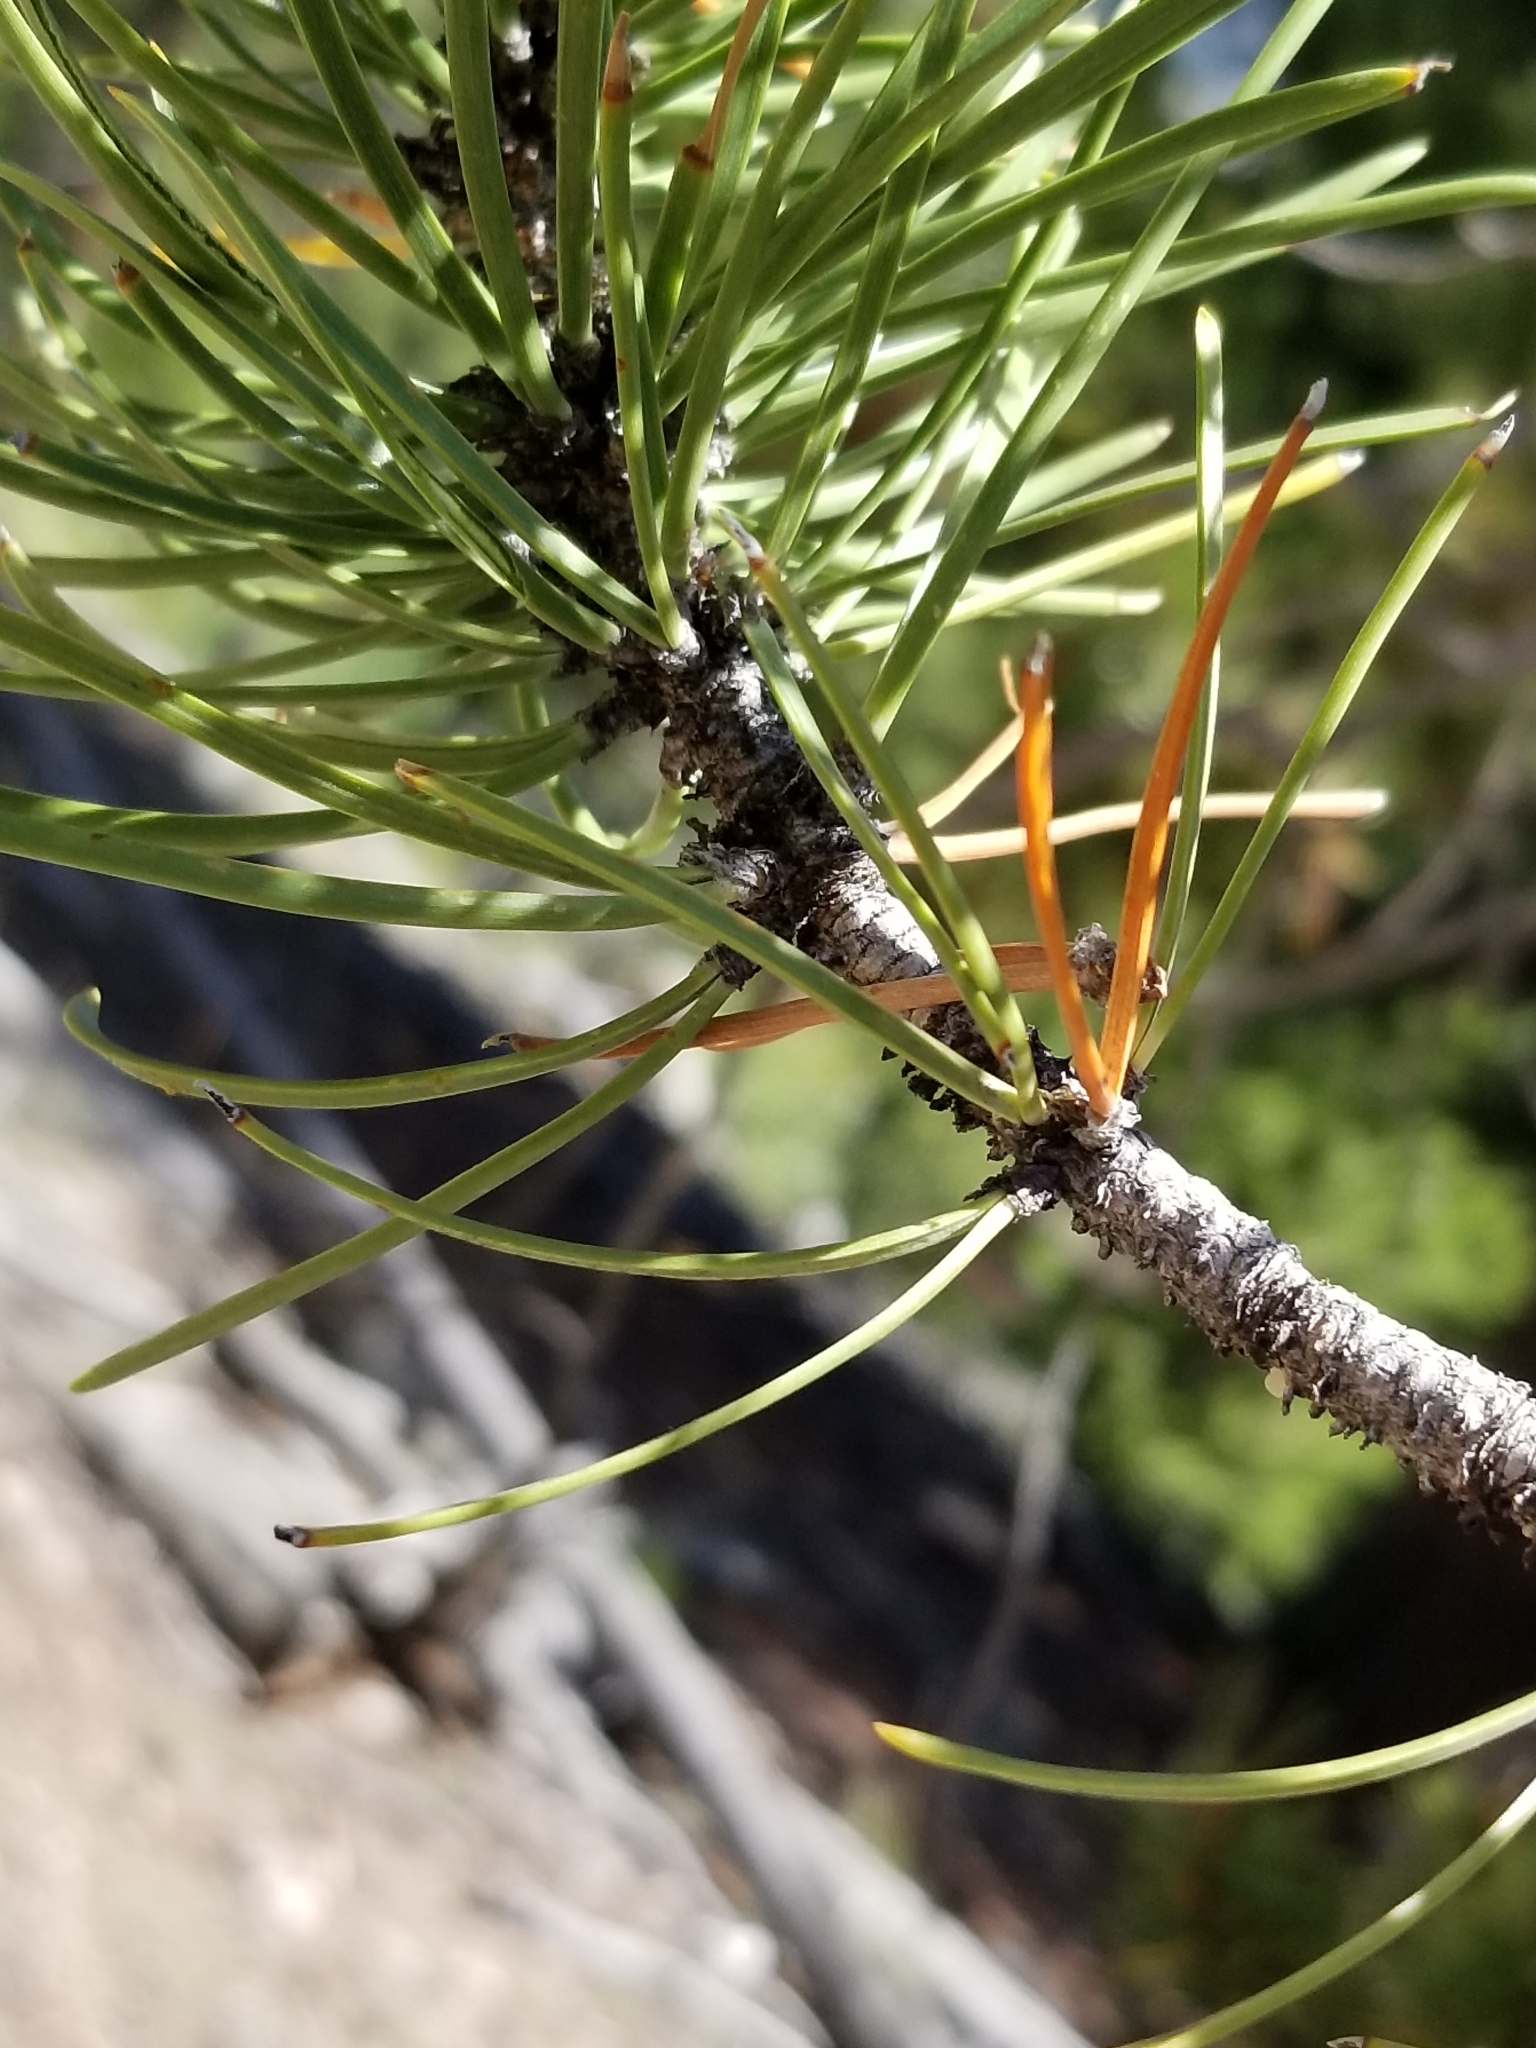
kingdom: Plantae
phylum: Tracheophyta
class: Pinopsida
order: Pinales
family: Pinaceae
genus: Pinus
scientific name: Pinus contorta
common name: Lodgepole pine
